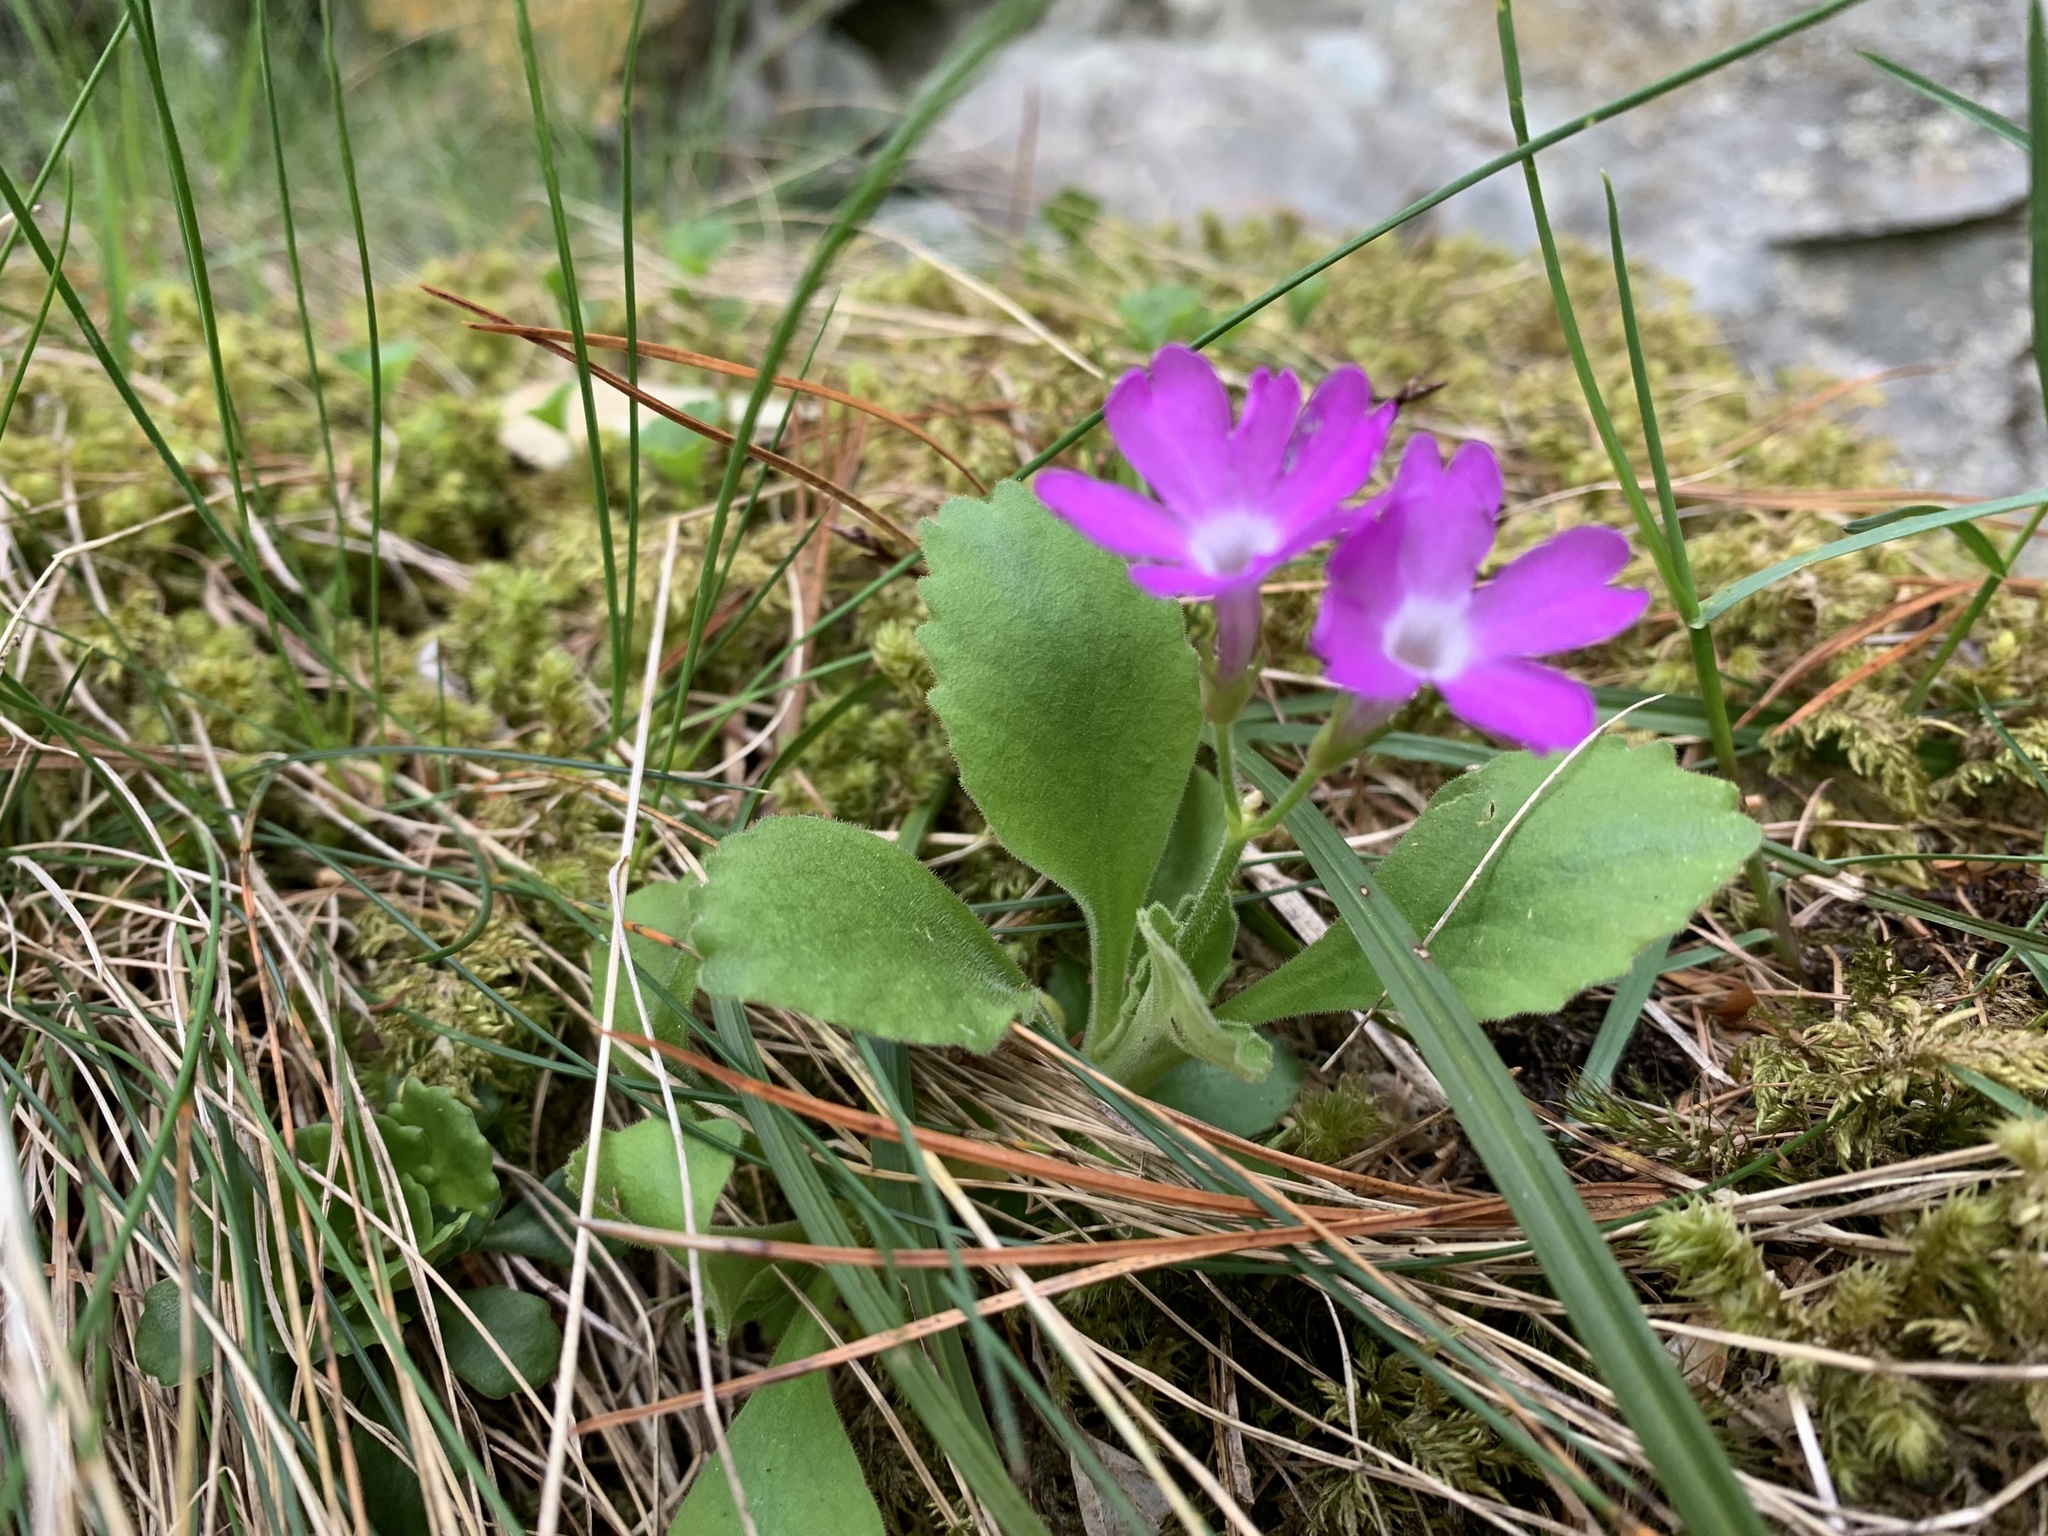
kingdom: Plantae
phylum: Tracheophyta
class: Magnoliopsida
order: Ericales
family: Primulaceae
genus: Primula
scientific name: Primula hirsuta
